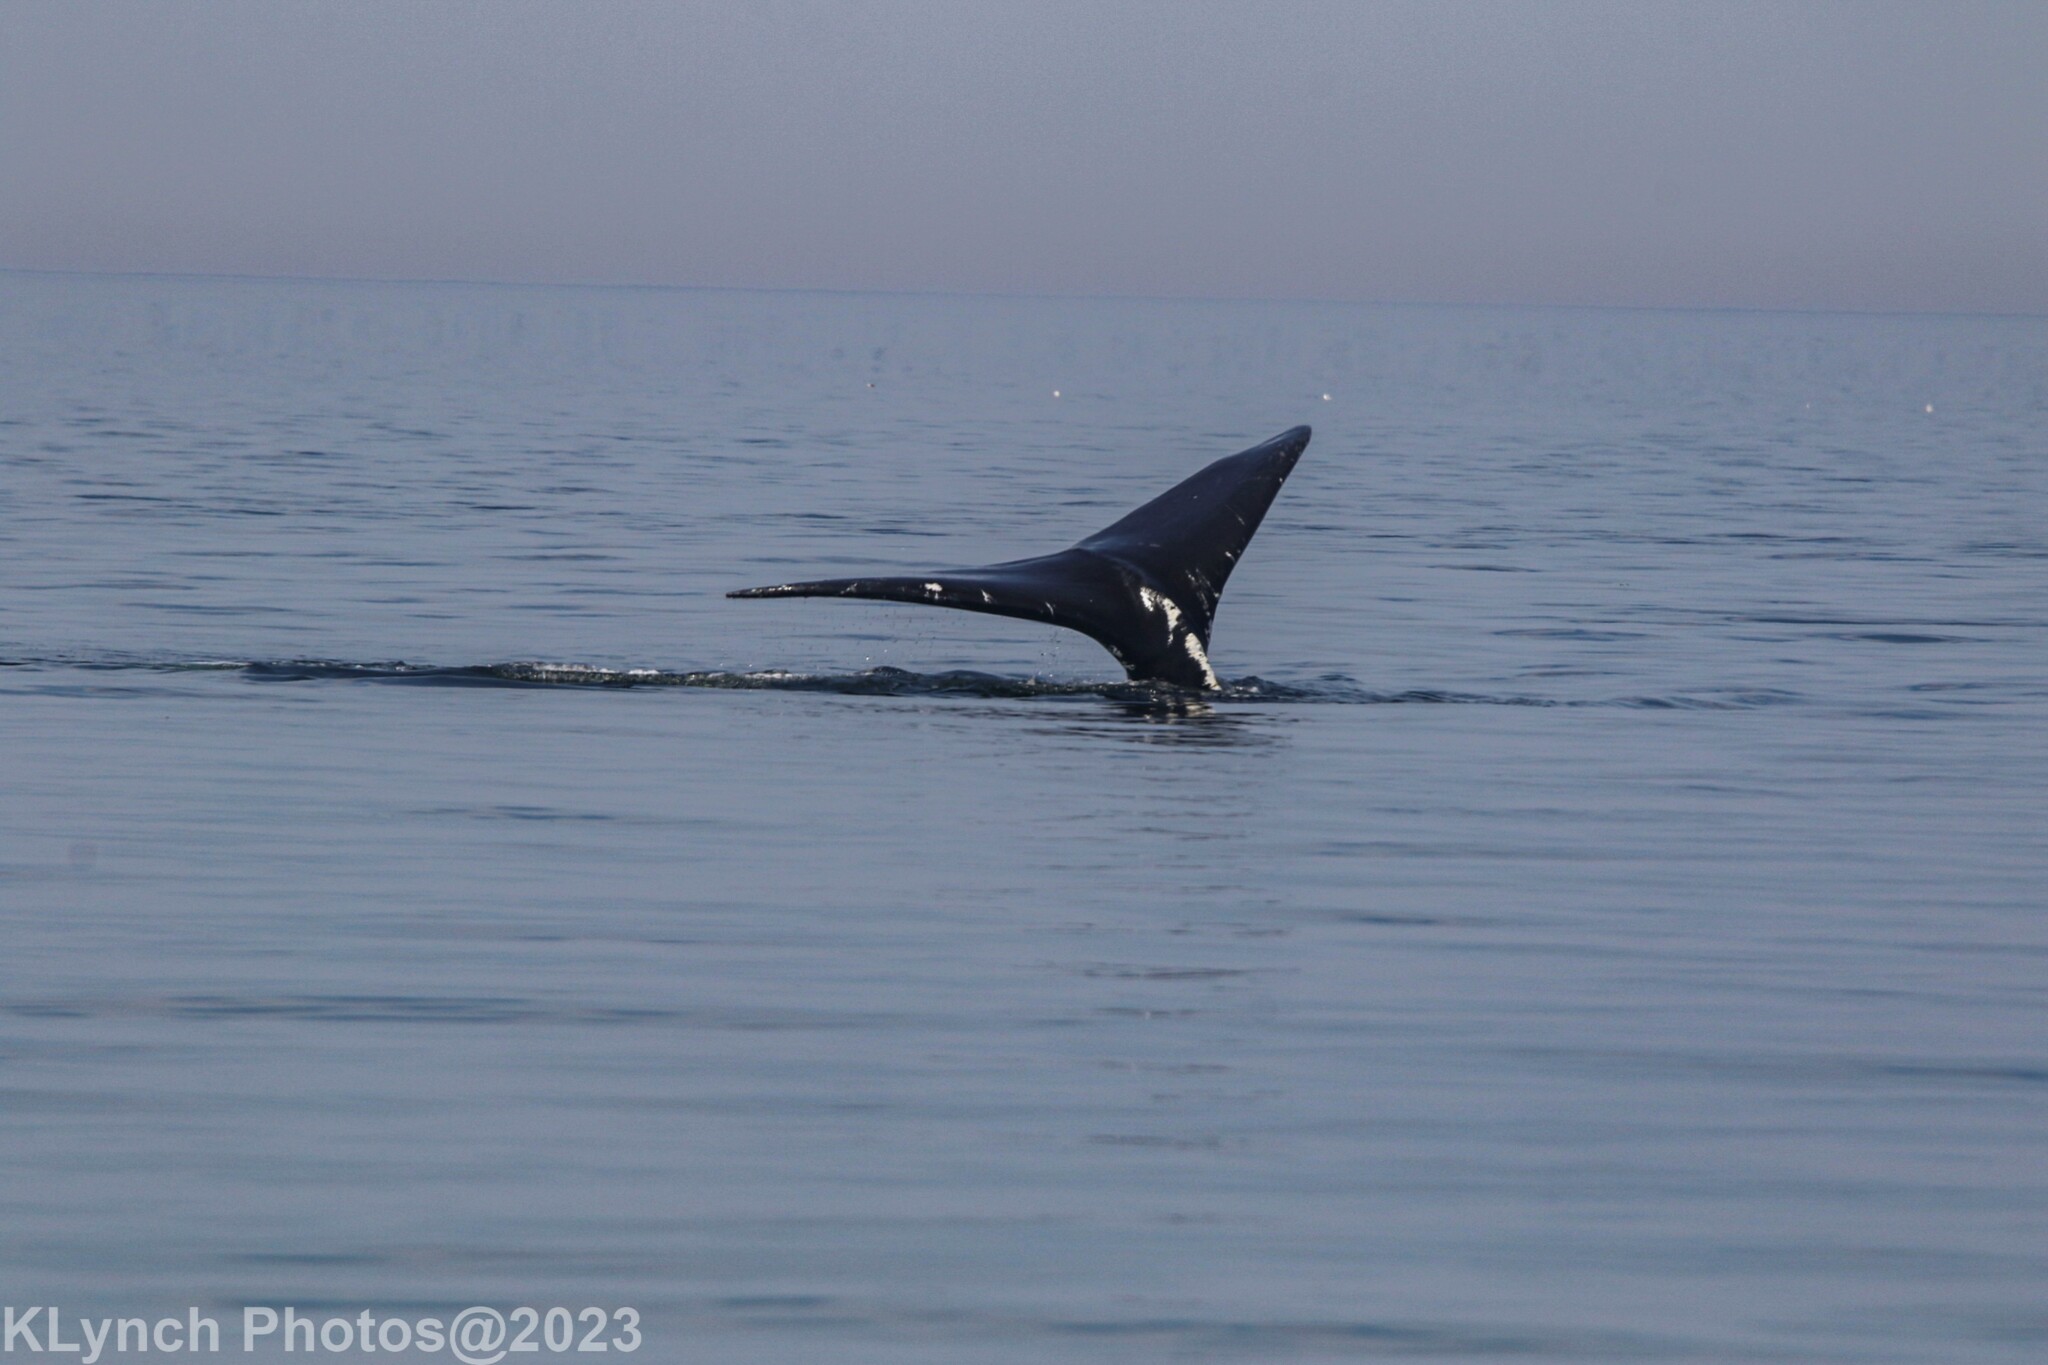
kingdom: Animalia
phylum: Chordata
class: Mammalia
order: Cetacea
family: Balaenidae
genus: Eubalaena
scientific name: Eubalaena glacialis
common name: North atlantic right whale
